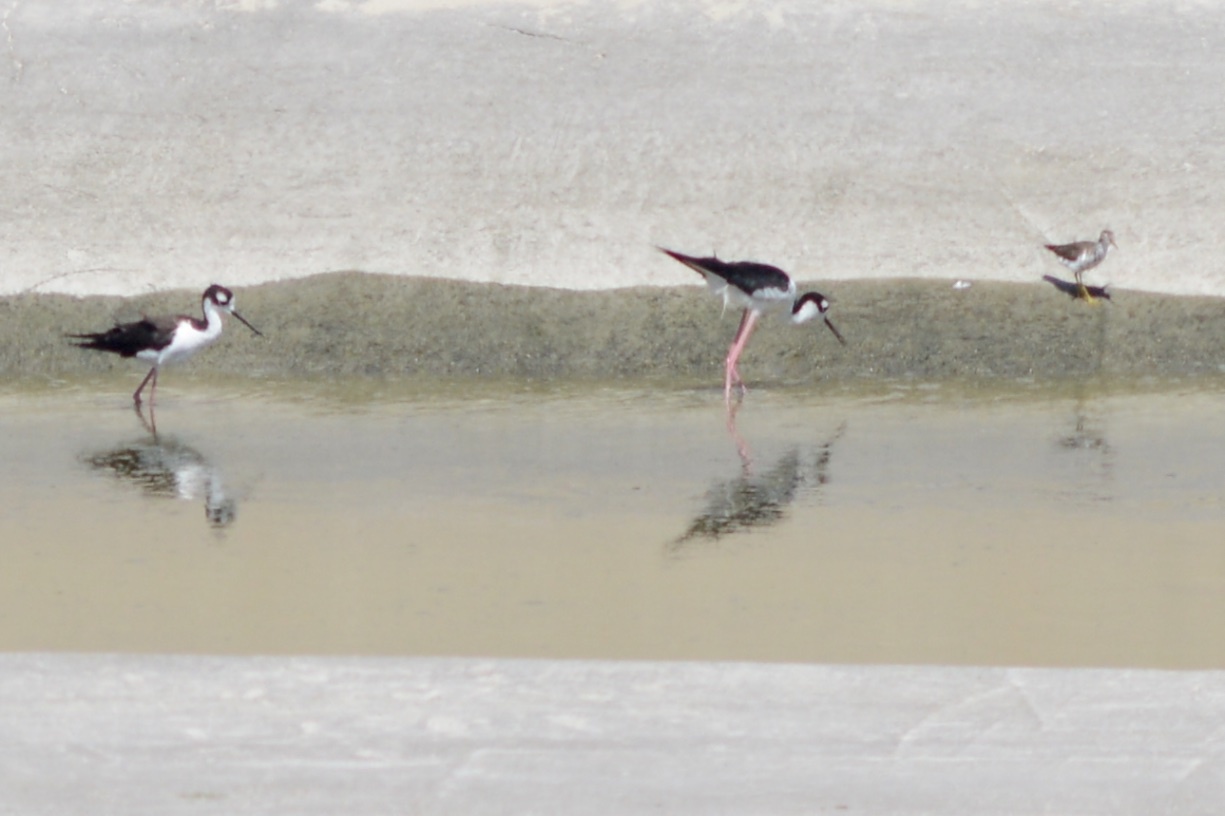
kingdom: Animalia
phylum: Chordata
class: Aves
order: Charadriiformes
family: Scolopacidae
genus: Actitis
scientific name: Actitis macularius
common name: Spotted sandpiper
